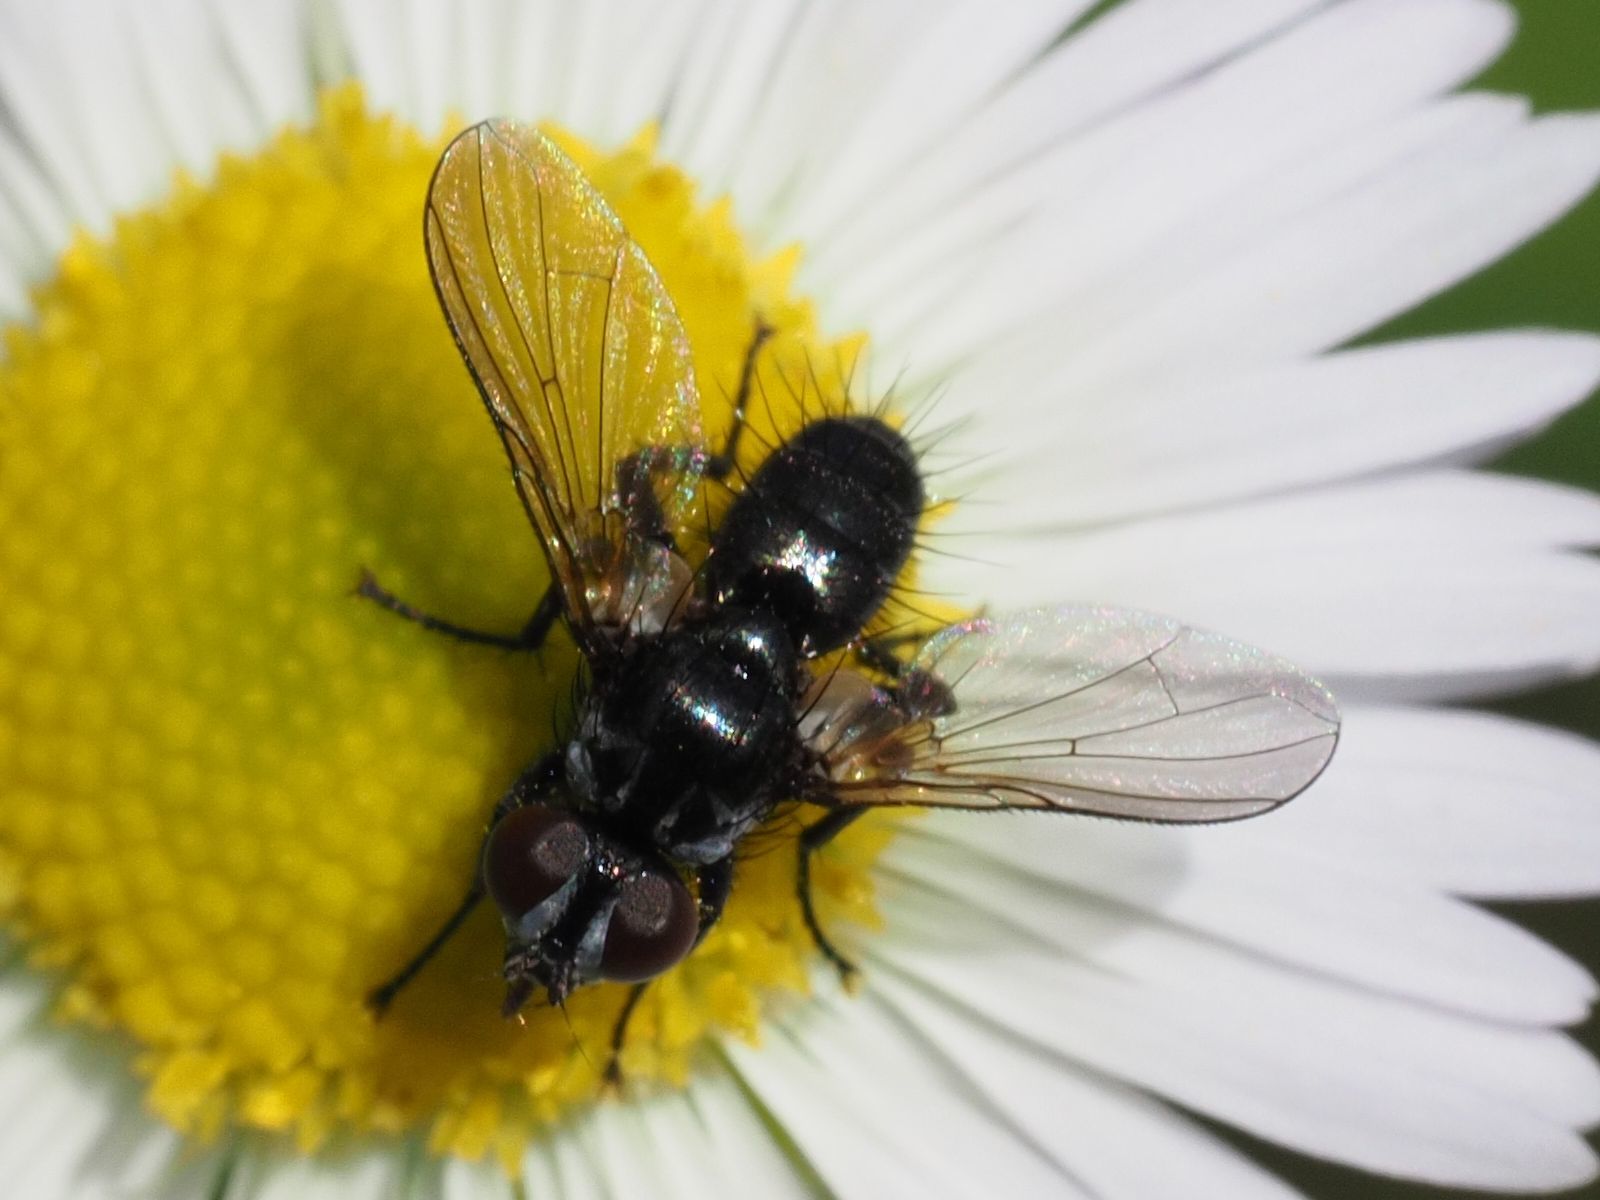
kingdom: Animalia
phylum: Arthropoda
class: Insecta
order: Diptera
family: Tachinidae
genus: Phania
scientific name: Phania funesta
